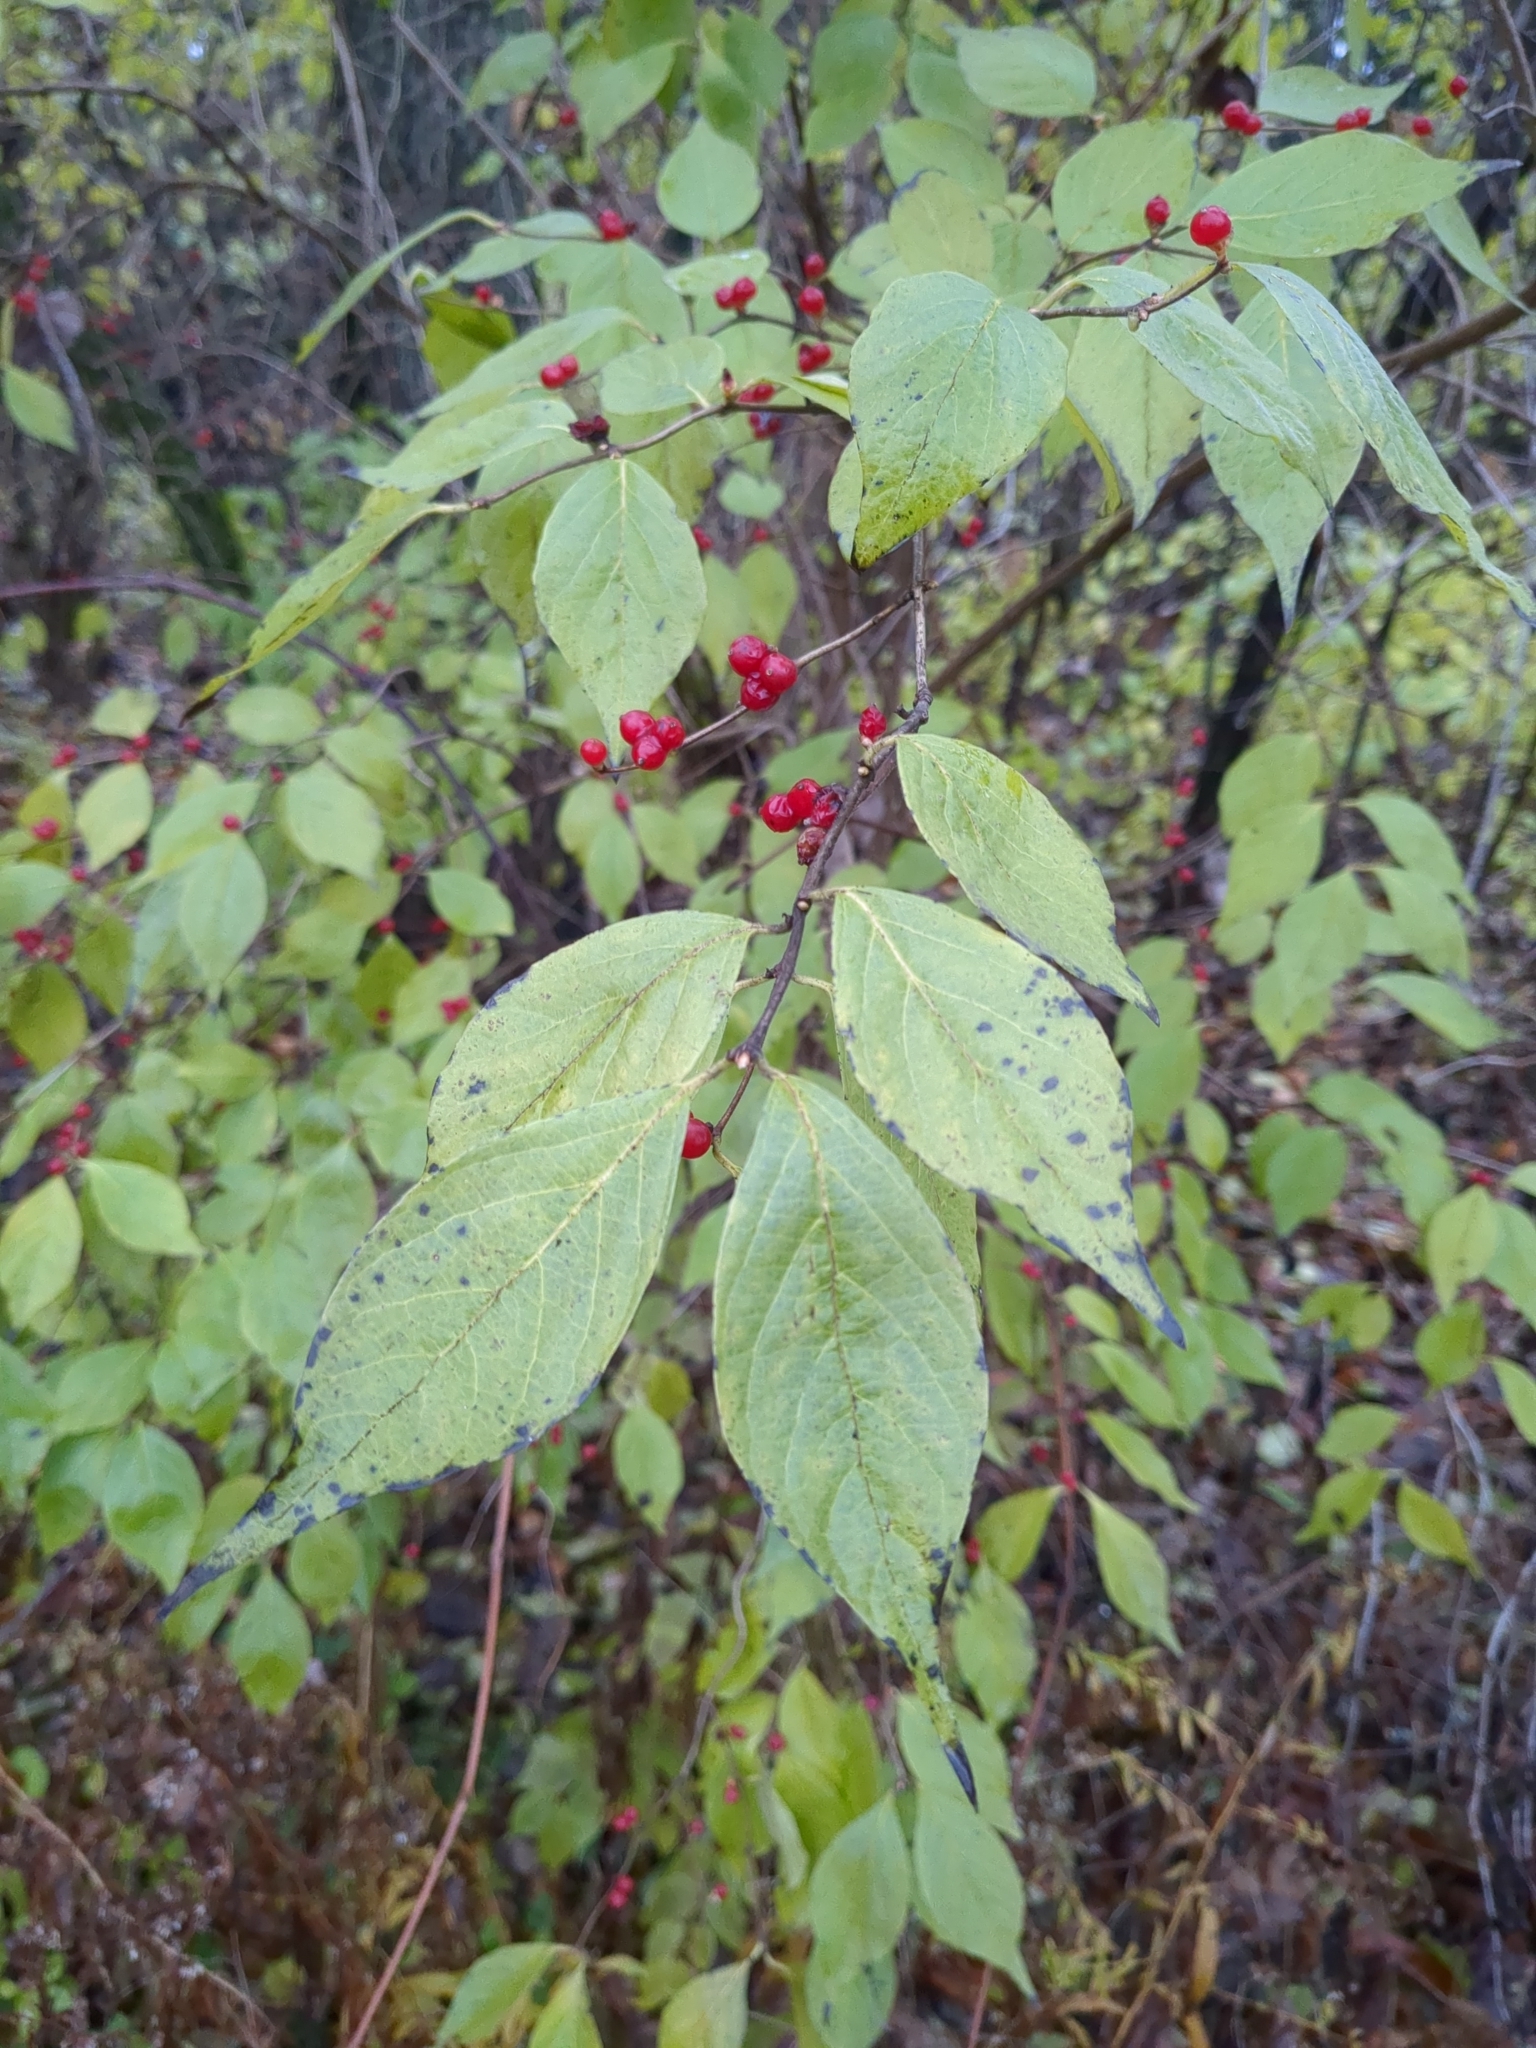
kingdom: Plantae
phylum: Tracheophyta
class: Magnoliopsida
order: Dipsacales
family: Caprifoliaceae
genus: Lonicera
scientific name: Lonicera maackii
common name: Amur honeysuckle
